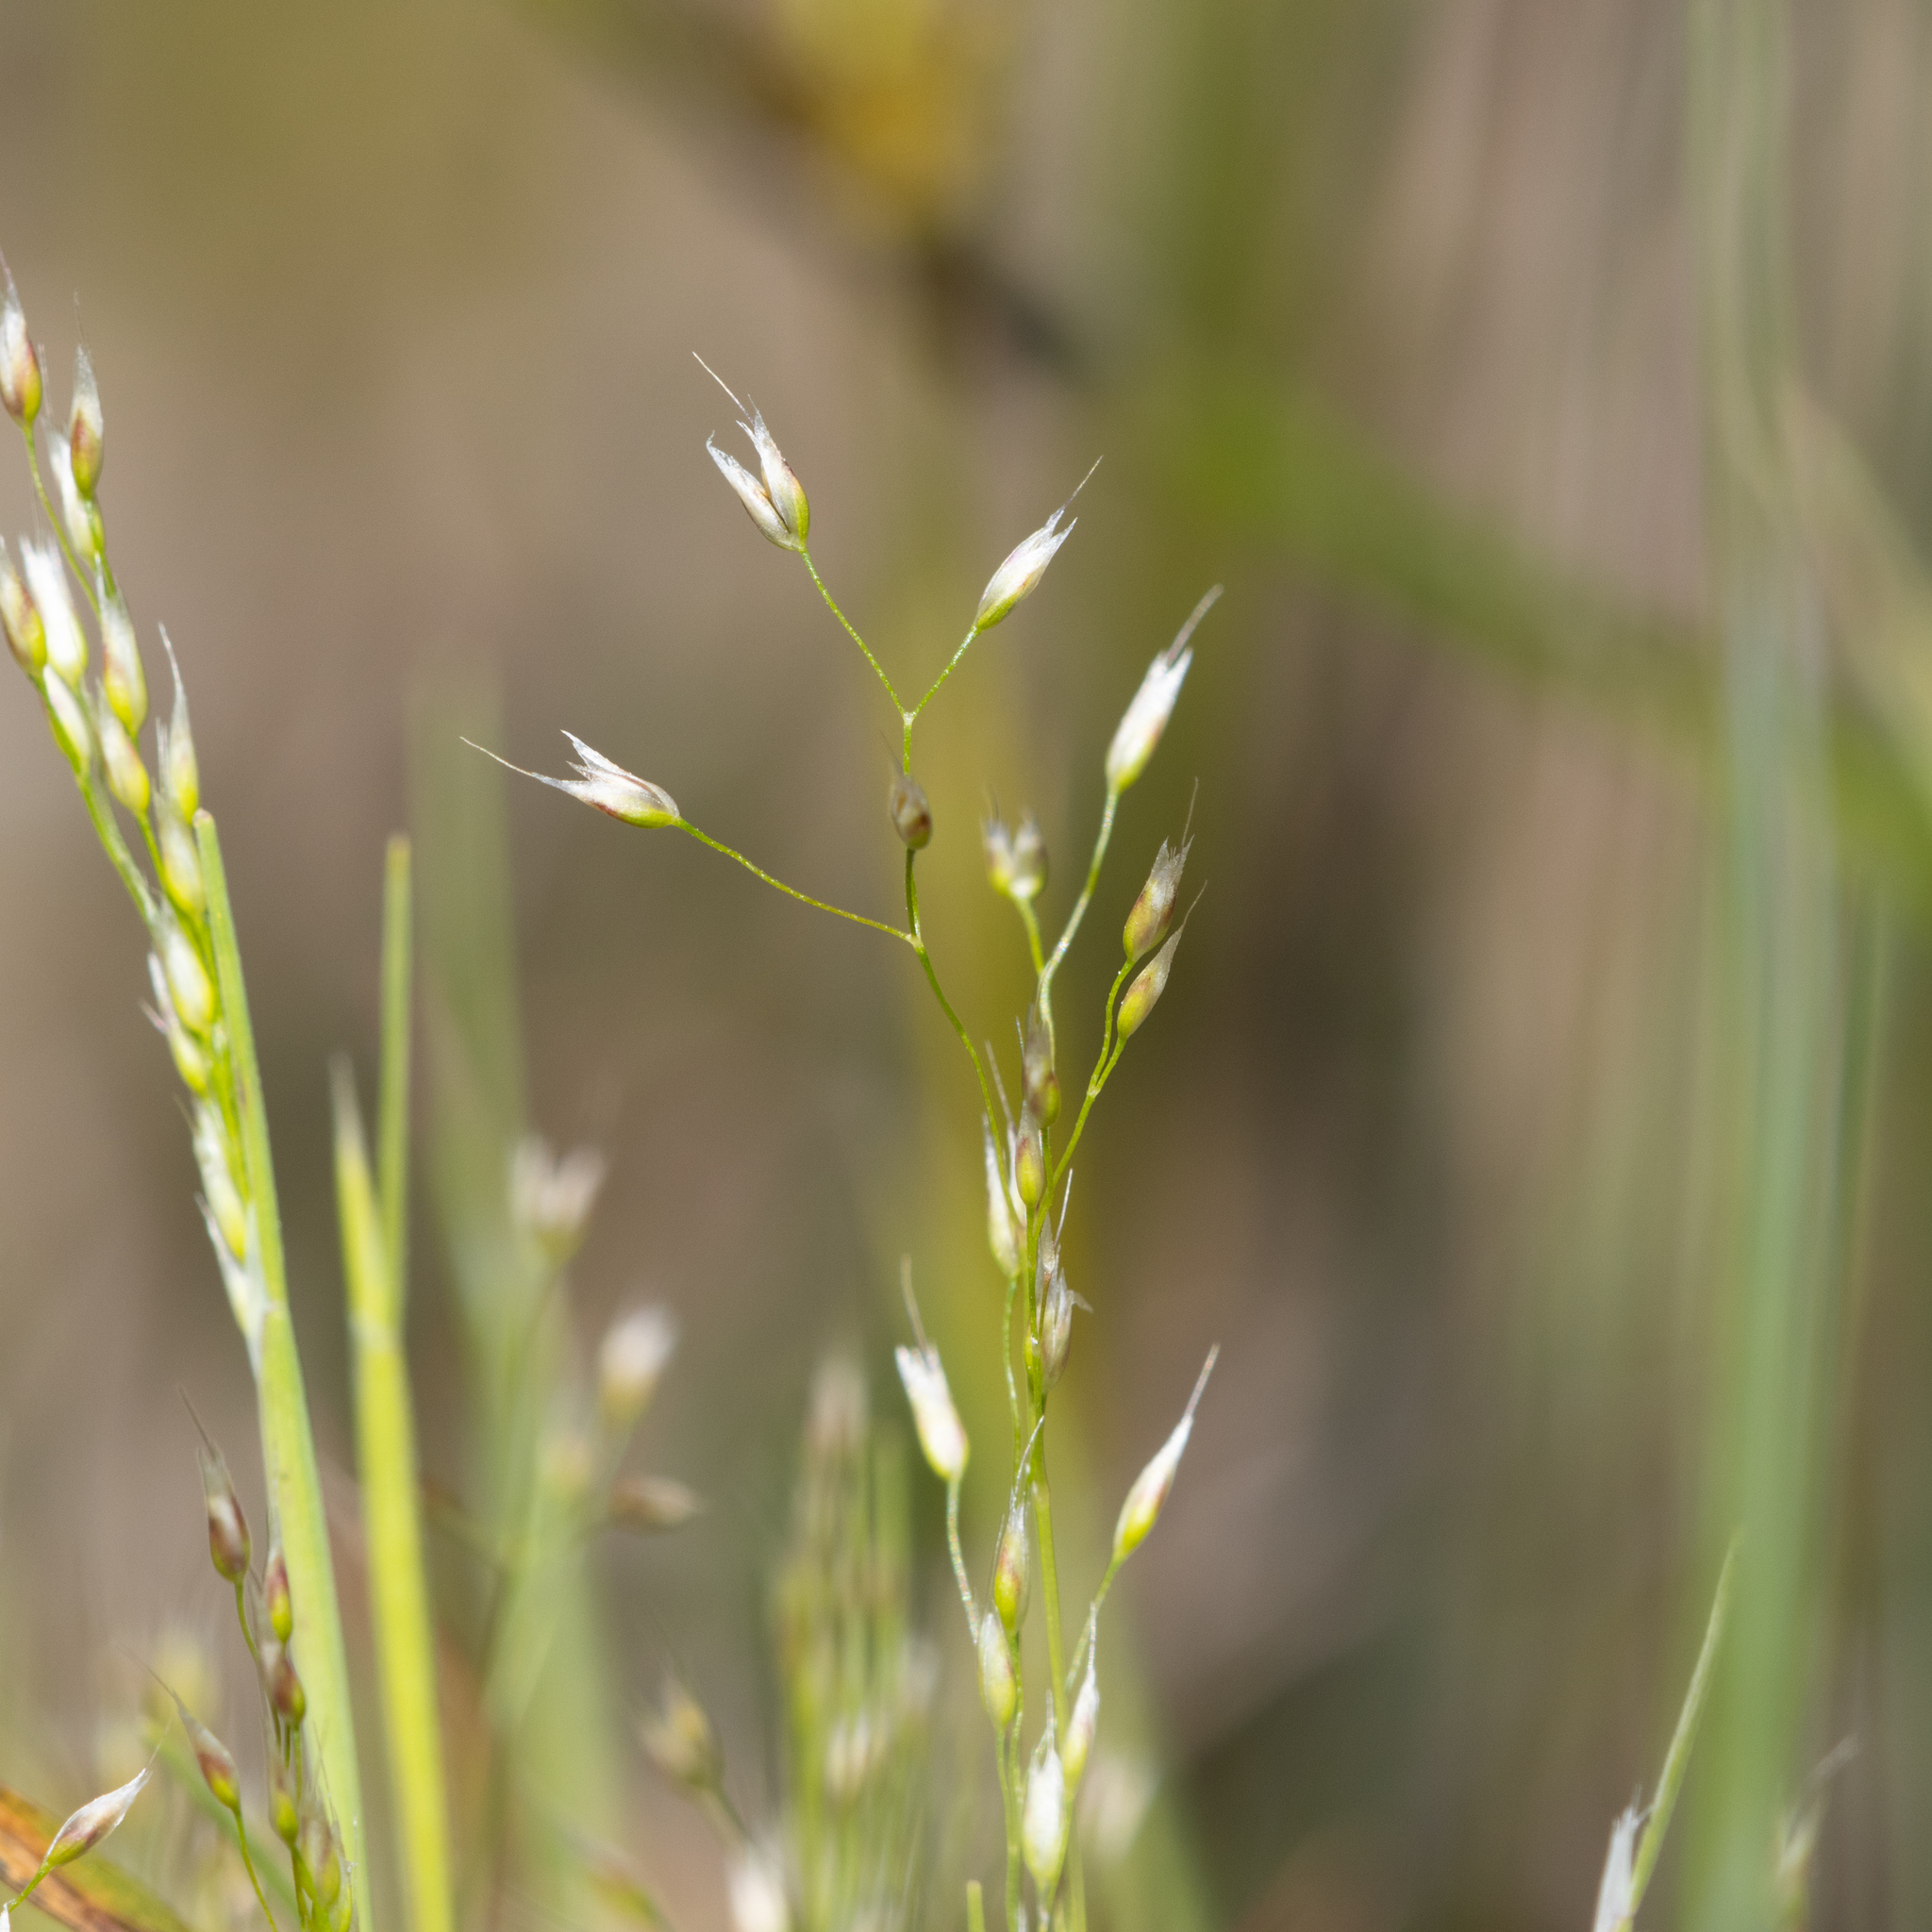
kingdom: Plantae
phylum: Tracheophyta
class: Liliopsida
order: Poales
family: Poaceae
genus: Aira
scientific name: Aira cupaniana
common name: Silver hairgrass
